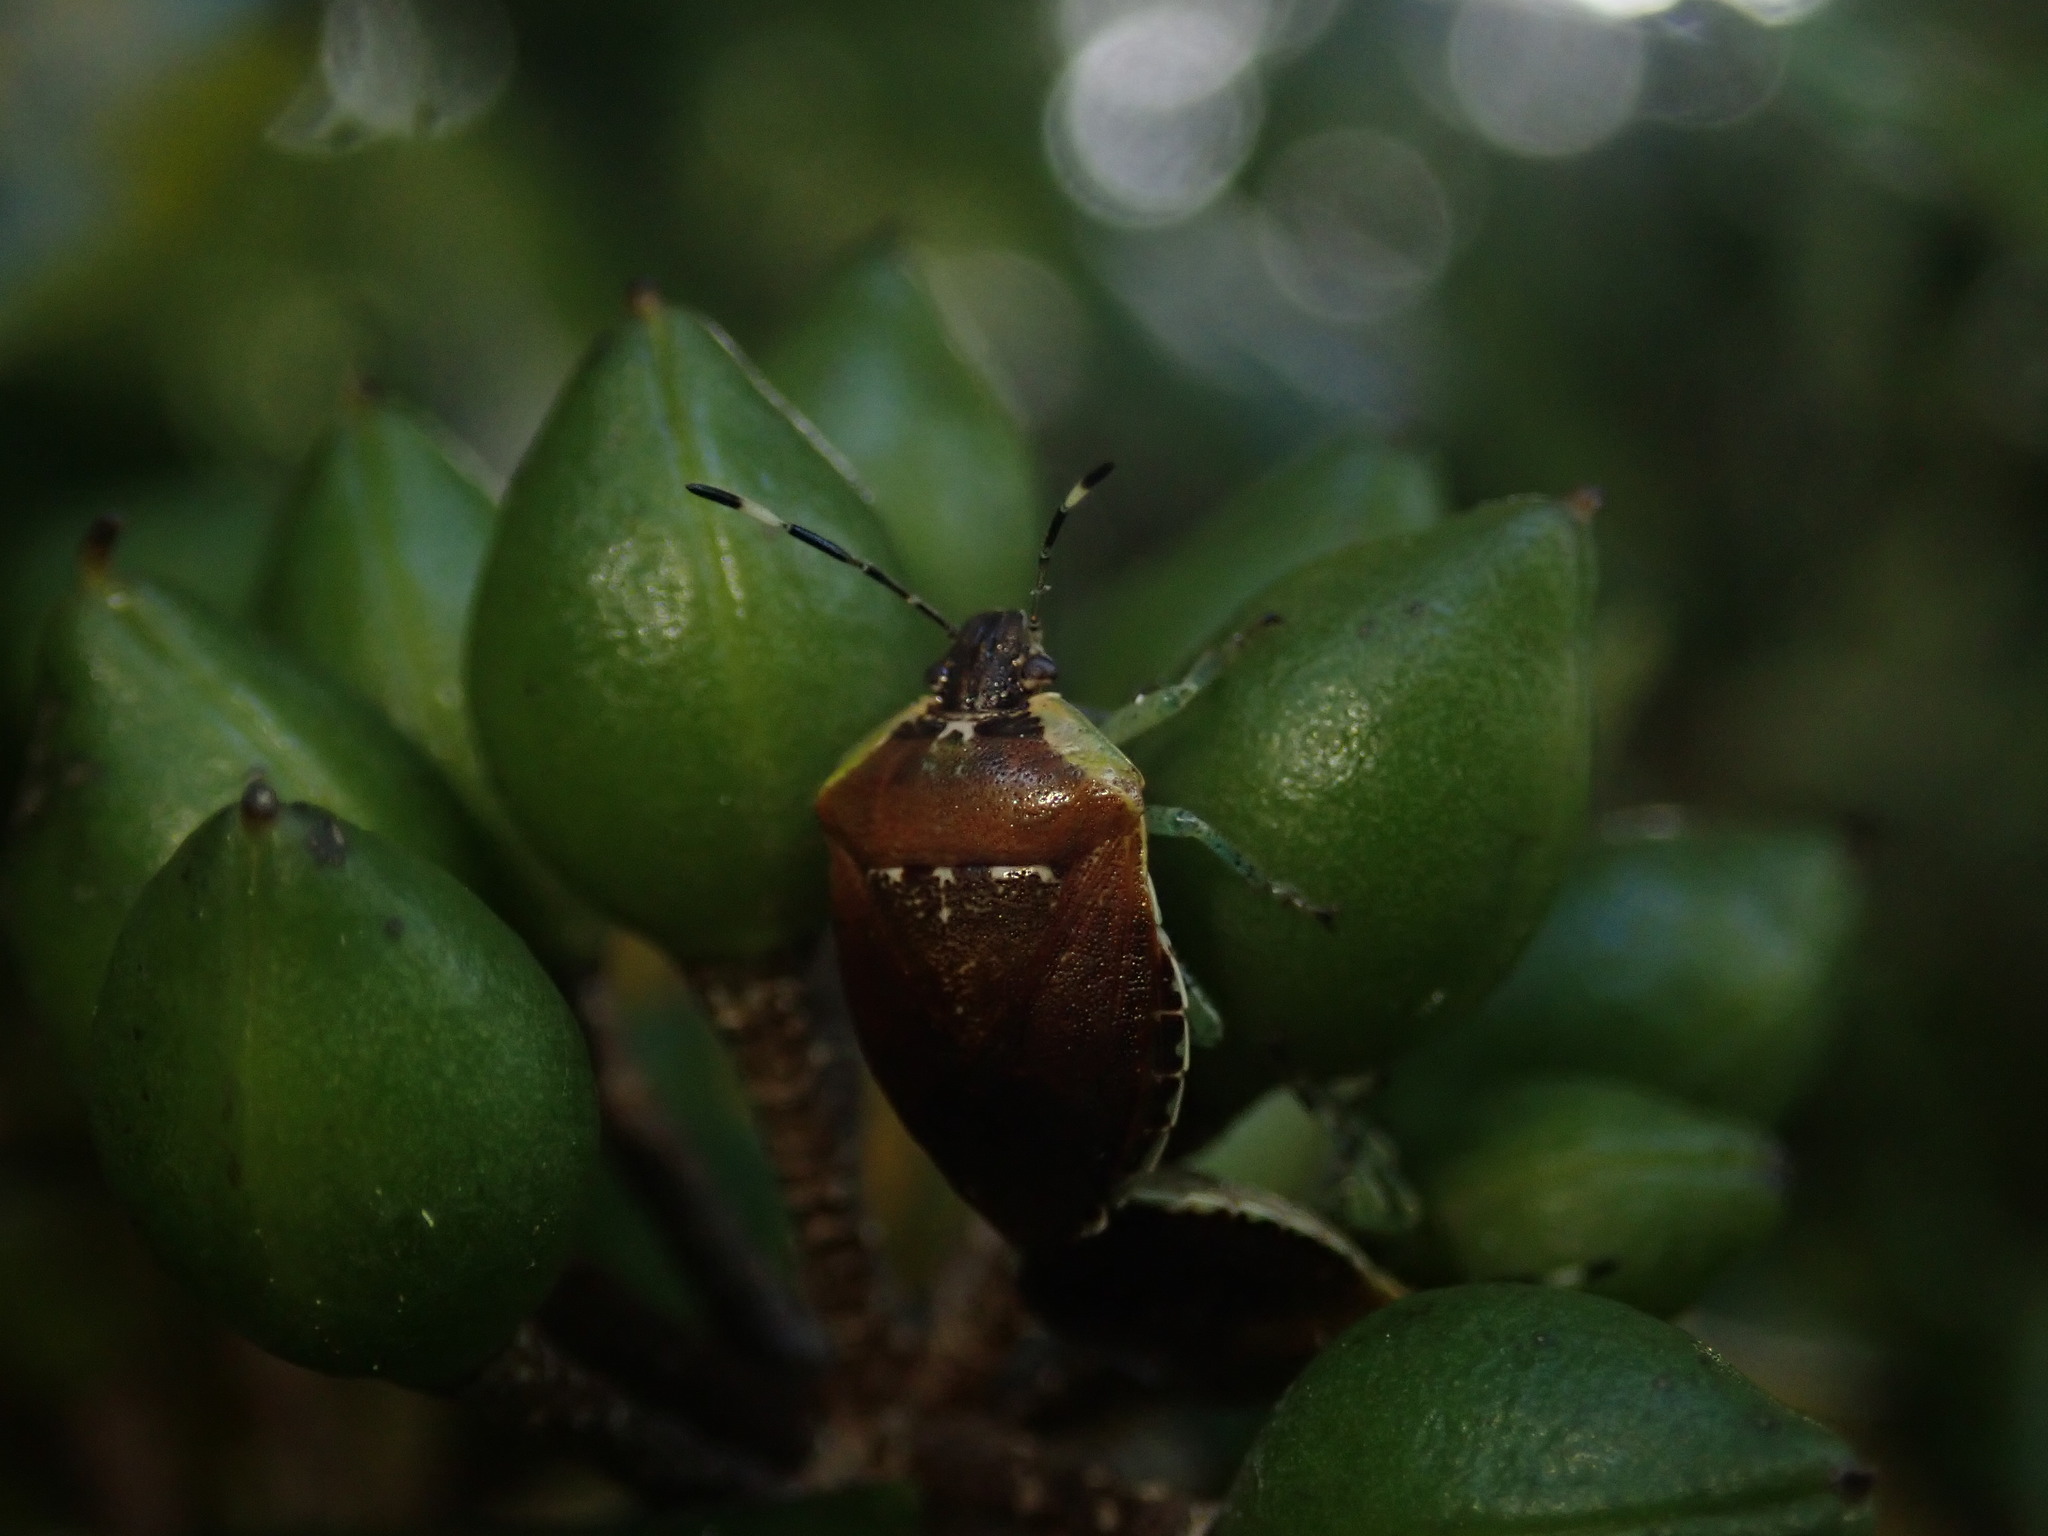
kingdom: Animalia
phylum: Arthropoda
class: Insecta
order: Hemiptera
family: Pentatomidae
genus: Monteithiella
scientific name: Monteithiella
